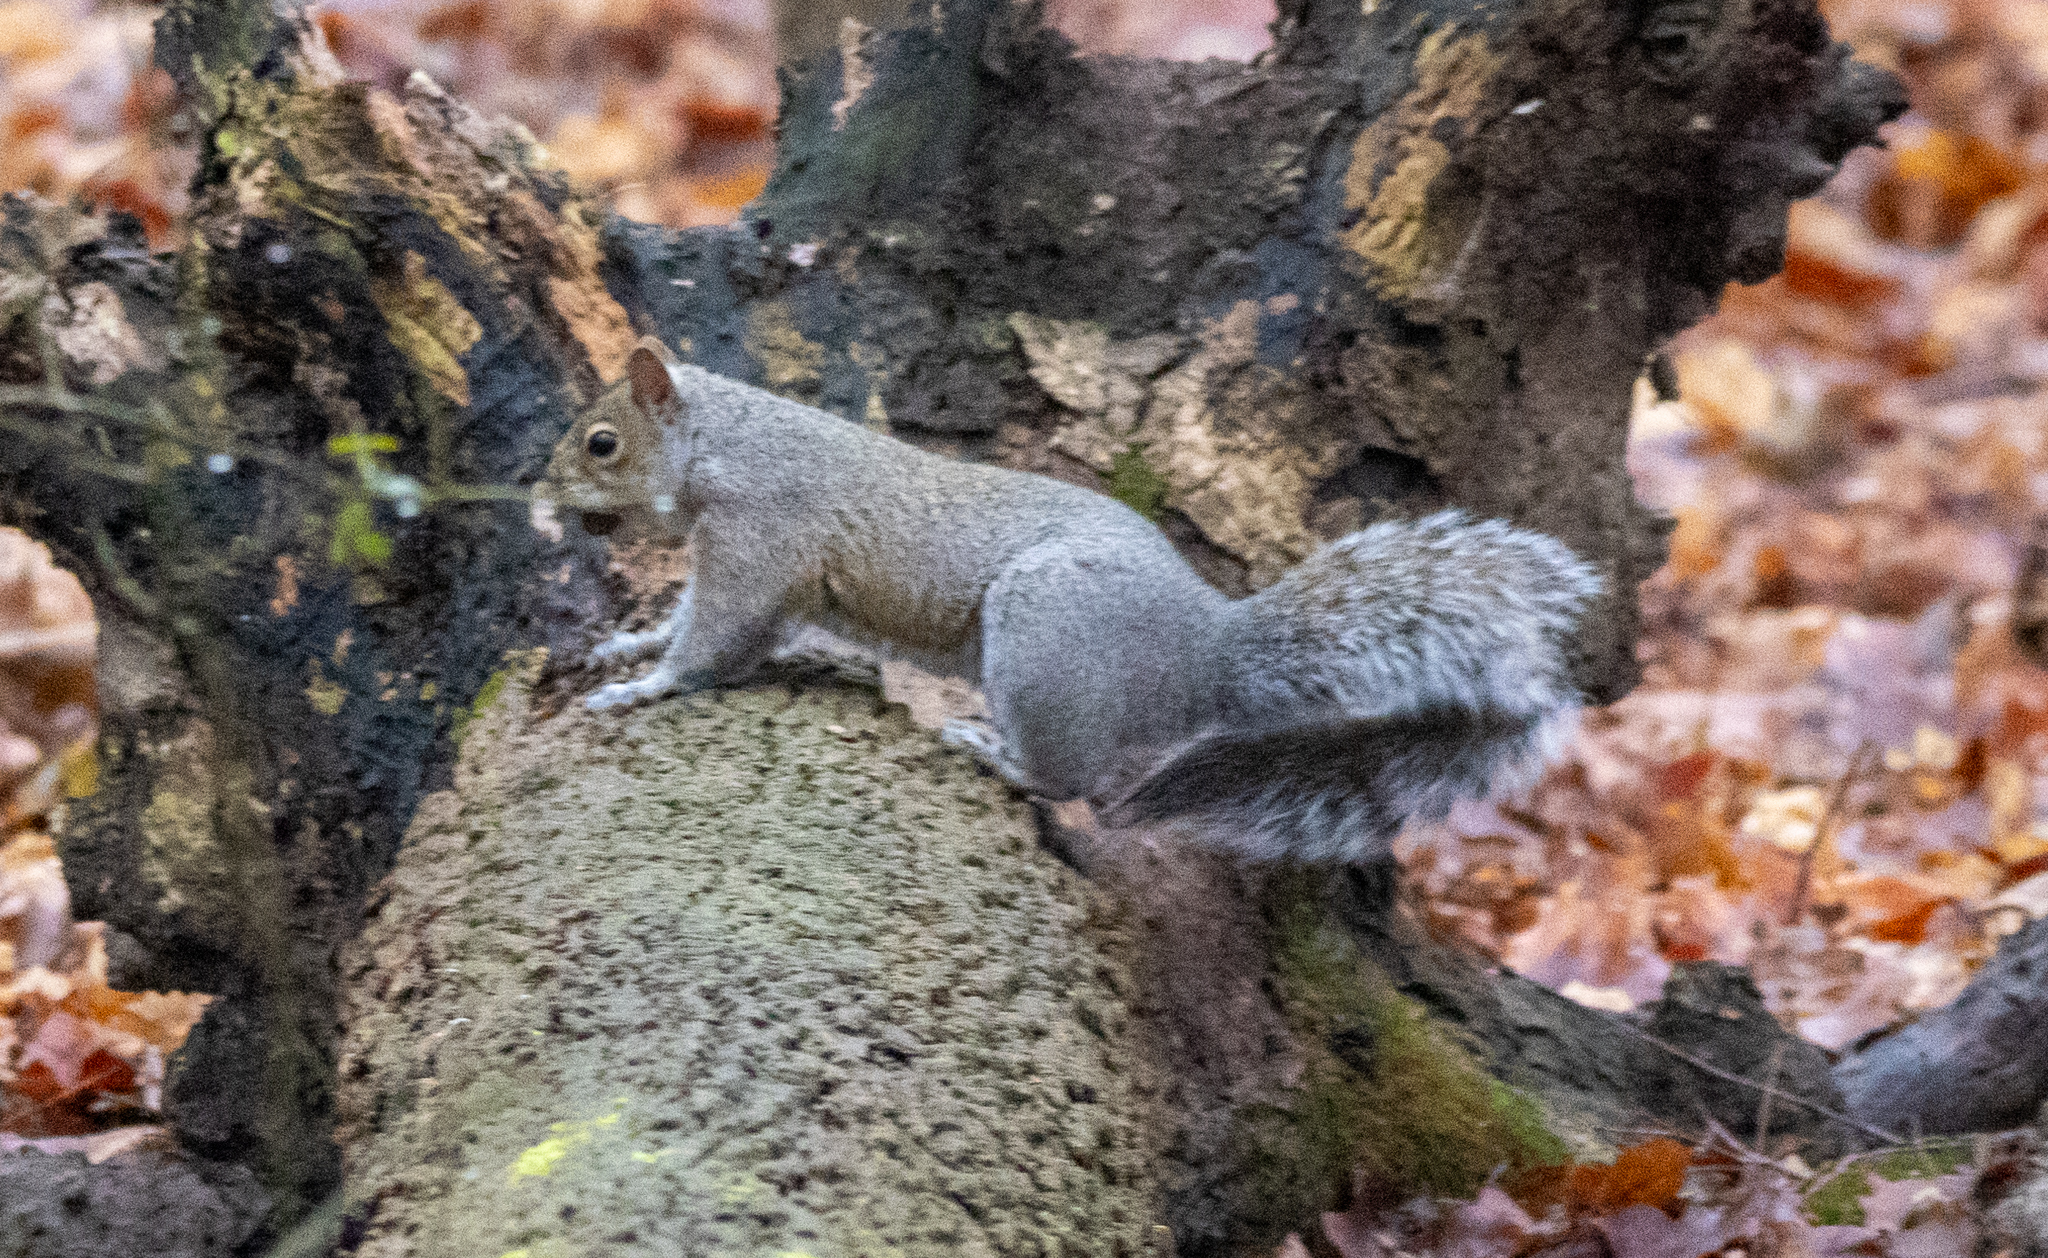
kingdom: Animalia
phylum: Chordata
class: Mammalia
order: Rodentia
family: Sciuridae
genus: Sciurus
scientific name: Sciurus carolinensis
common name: Eastern gray squirrel
